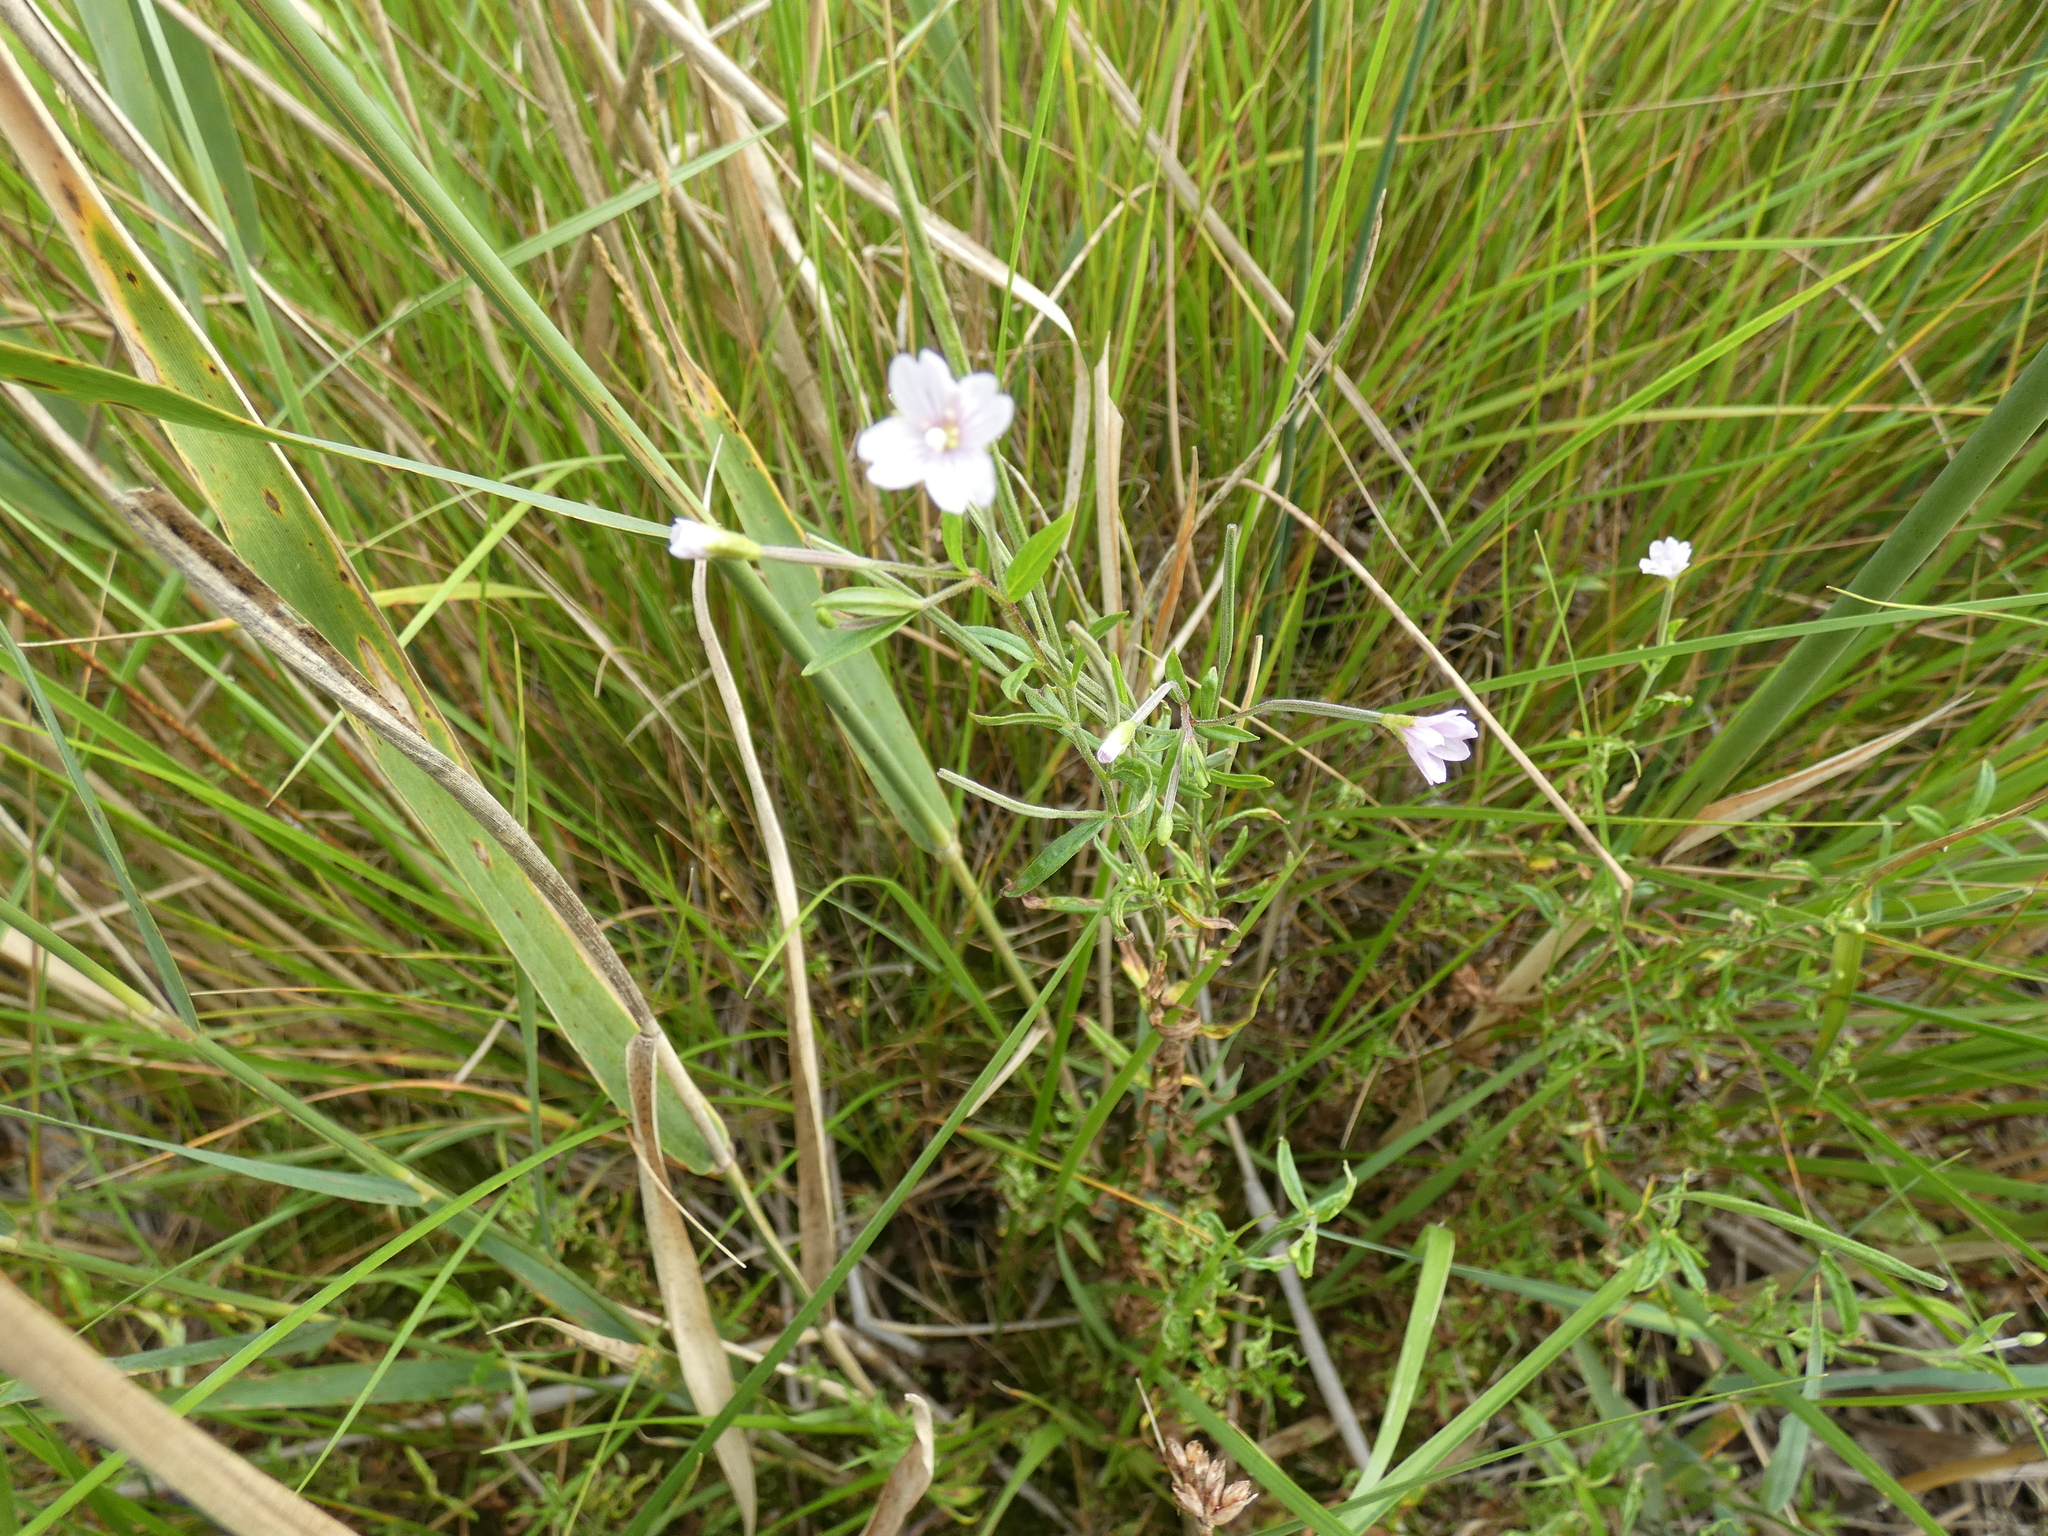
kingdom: Plantae
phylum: Tracheophyta
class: Magnoliopsida
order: Myrtales
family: Onagraceae
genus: Epilobium
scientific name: Epilobium palustre
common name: Marsh willowherb
